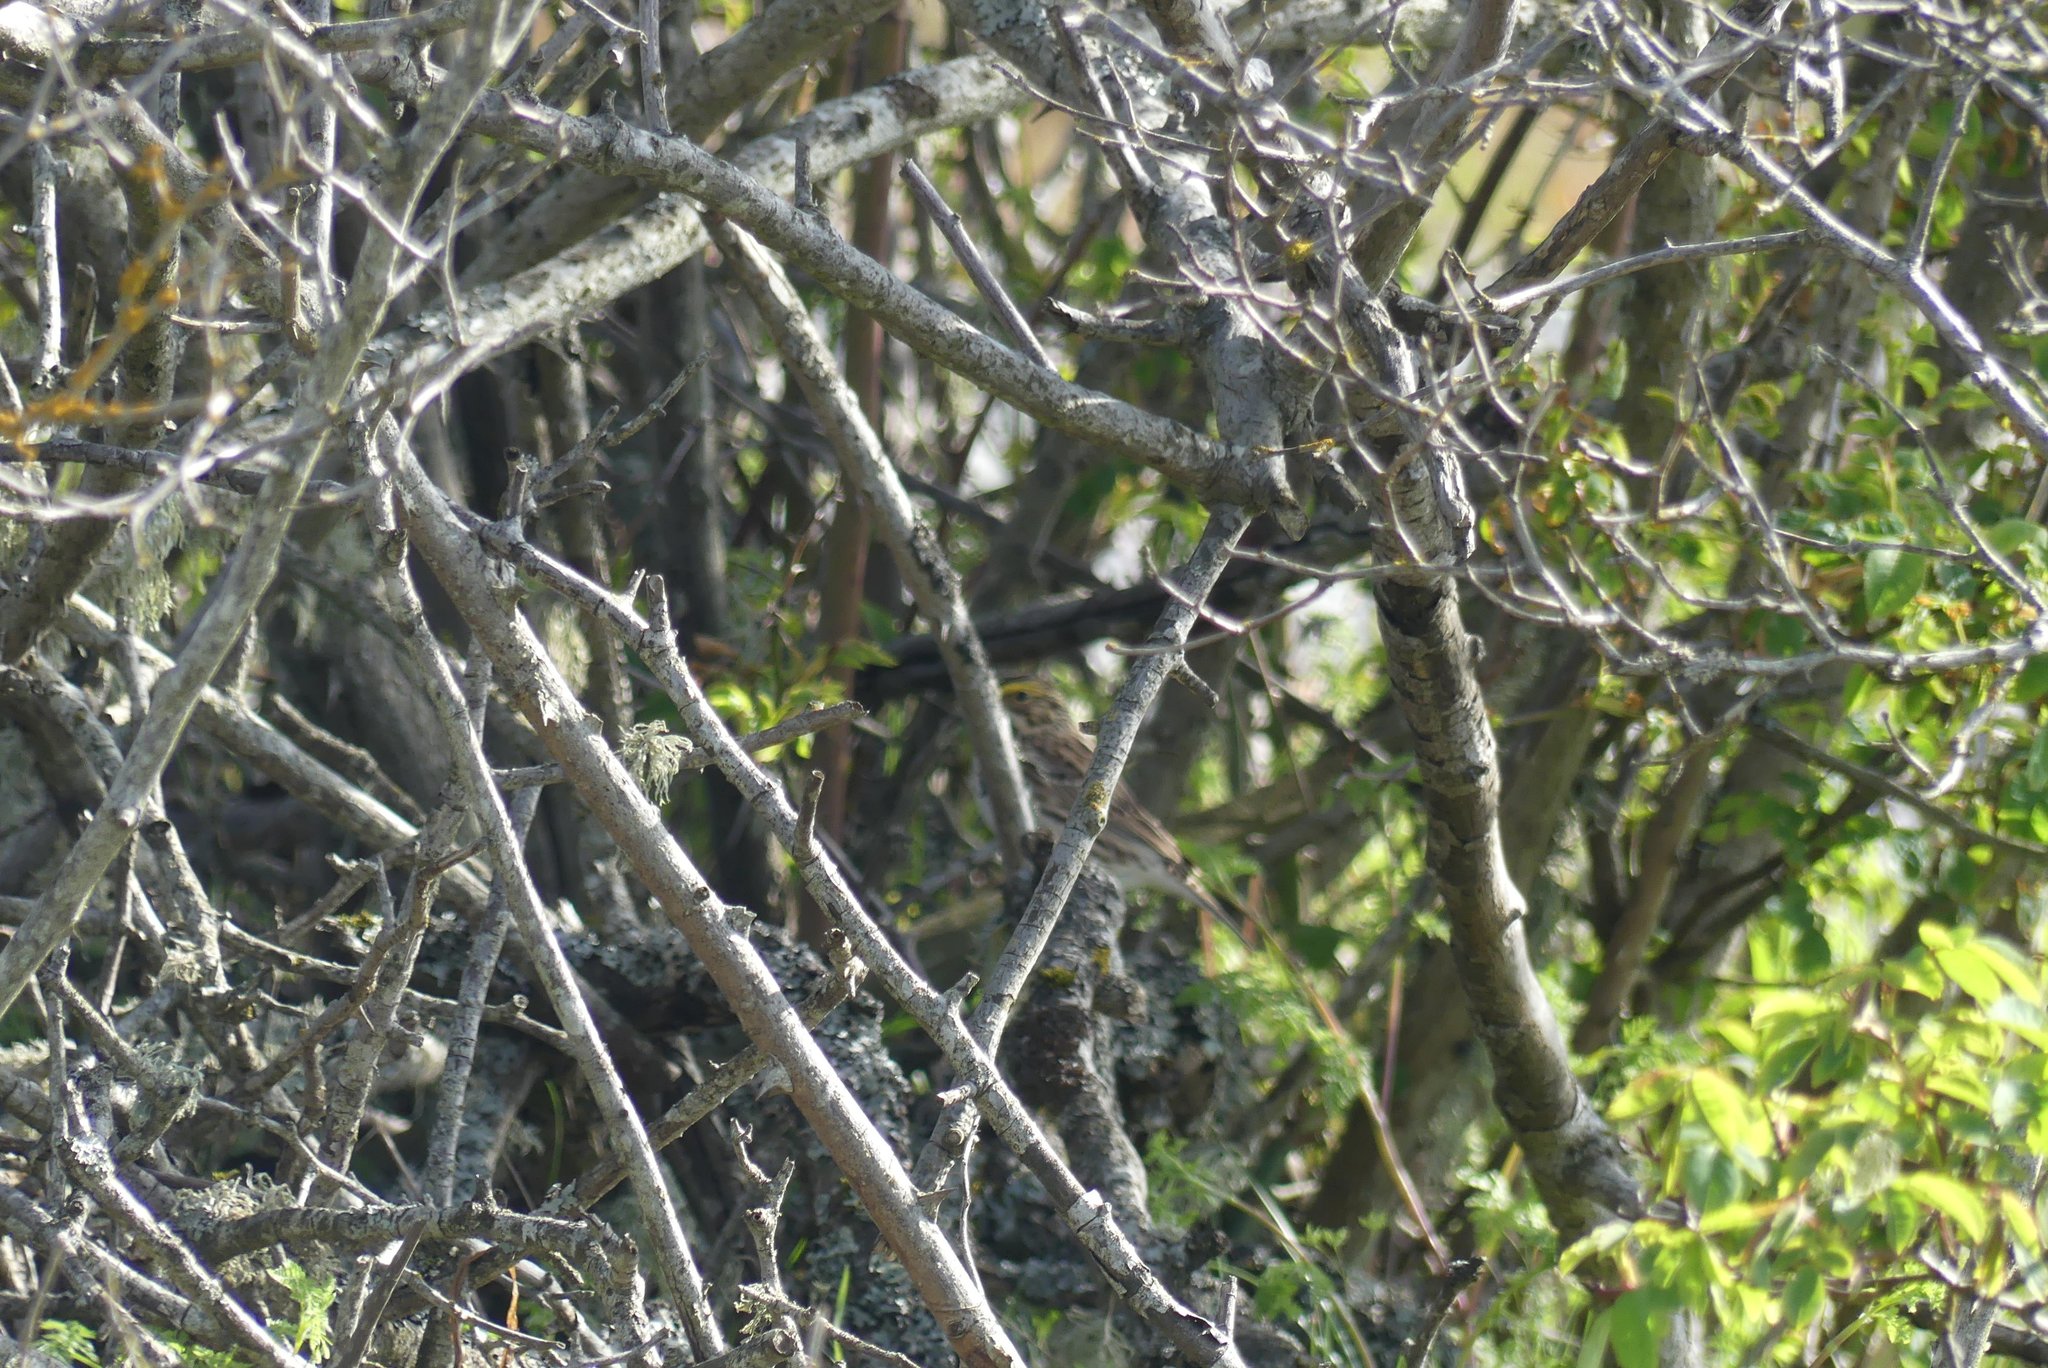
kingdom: Animalia
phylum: Chordata
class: Aves
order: Passeriformes
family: Passerellidae
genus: Passerculus
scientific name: Passerculus sandwichensis
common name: Savannah sparrow
